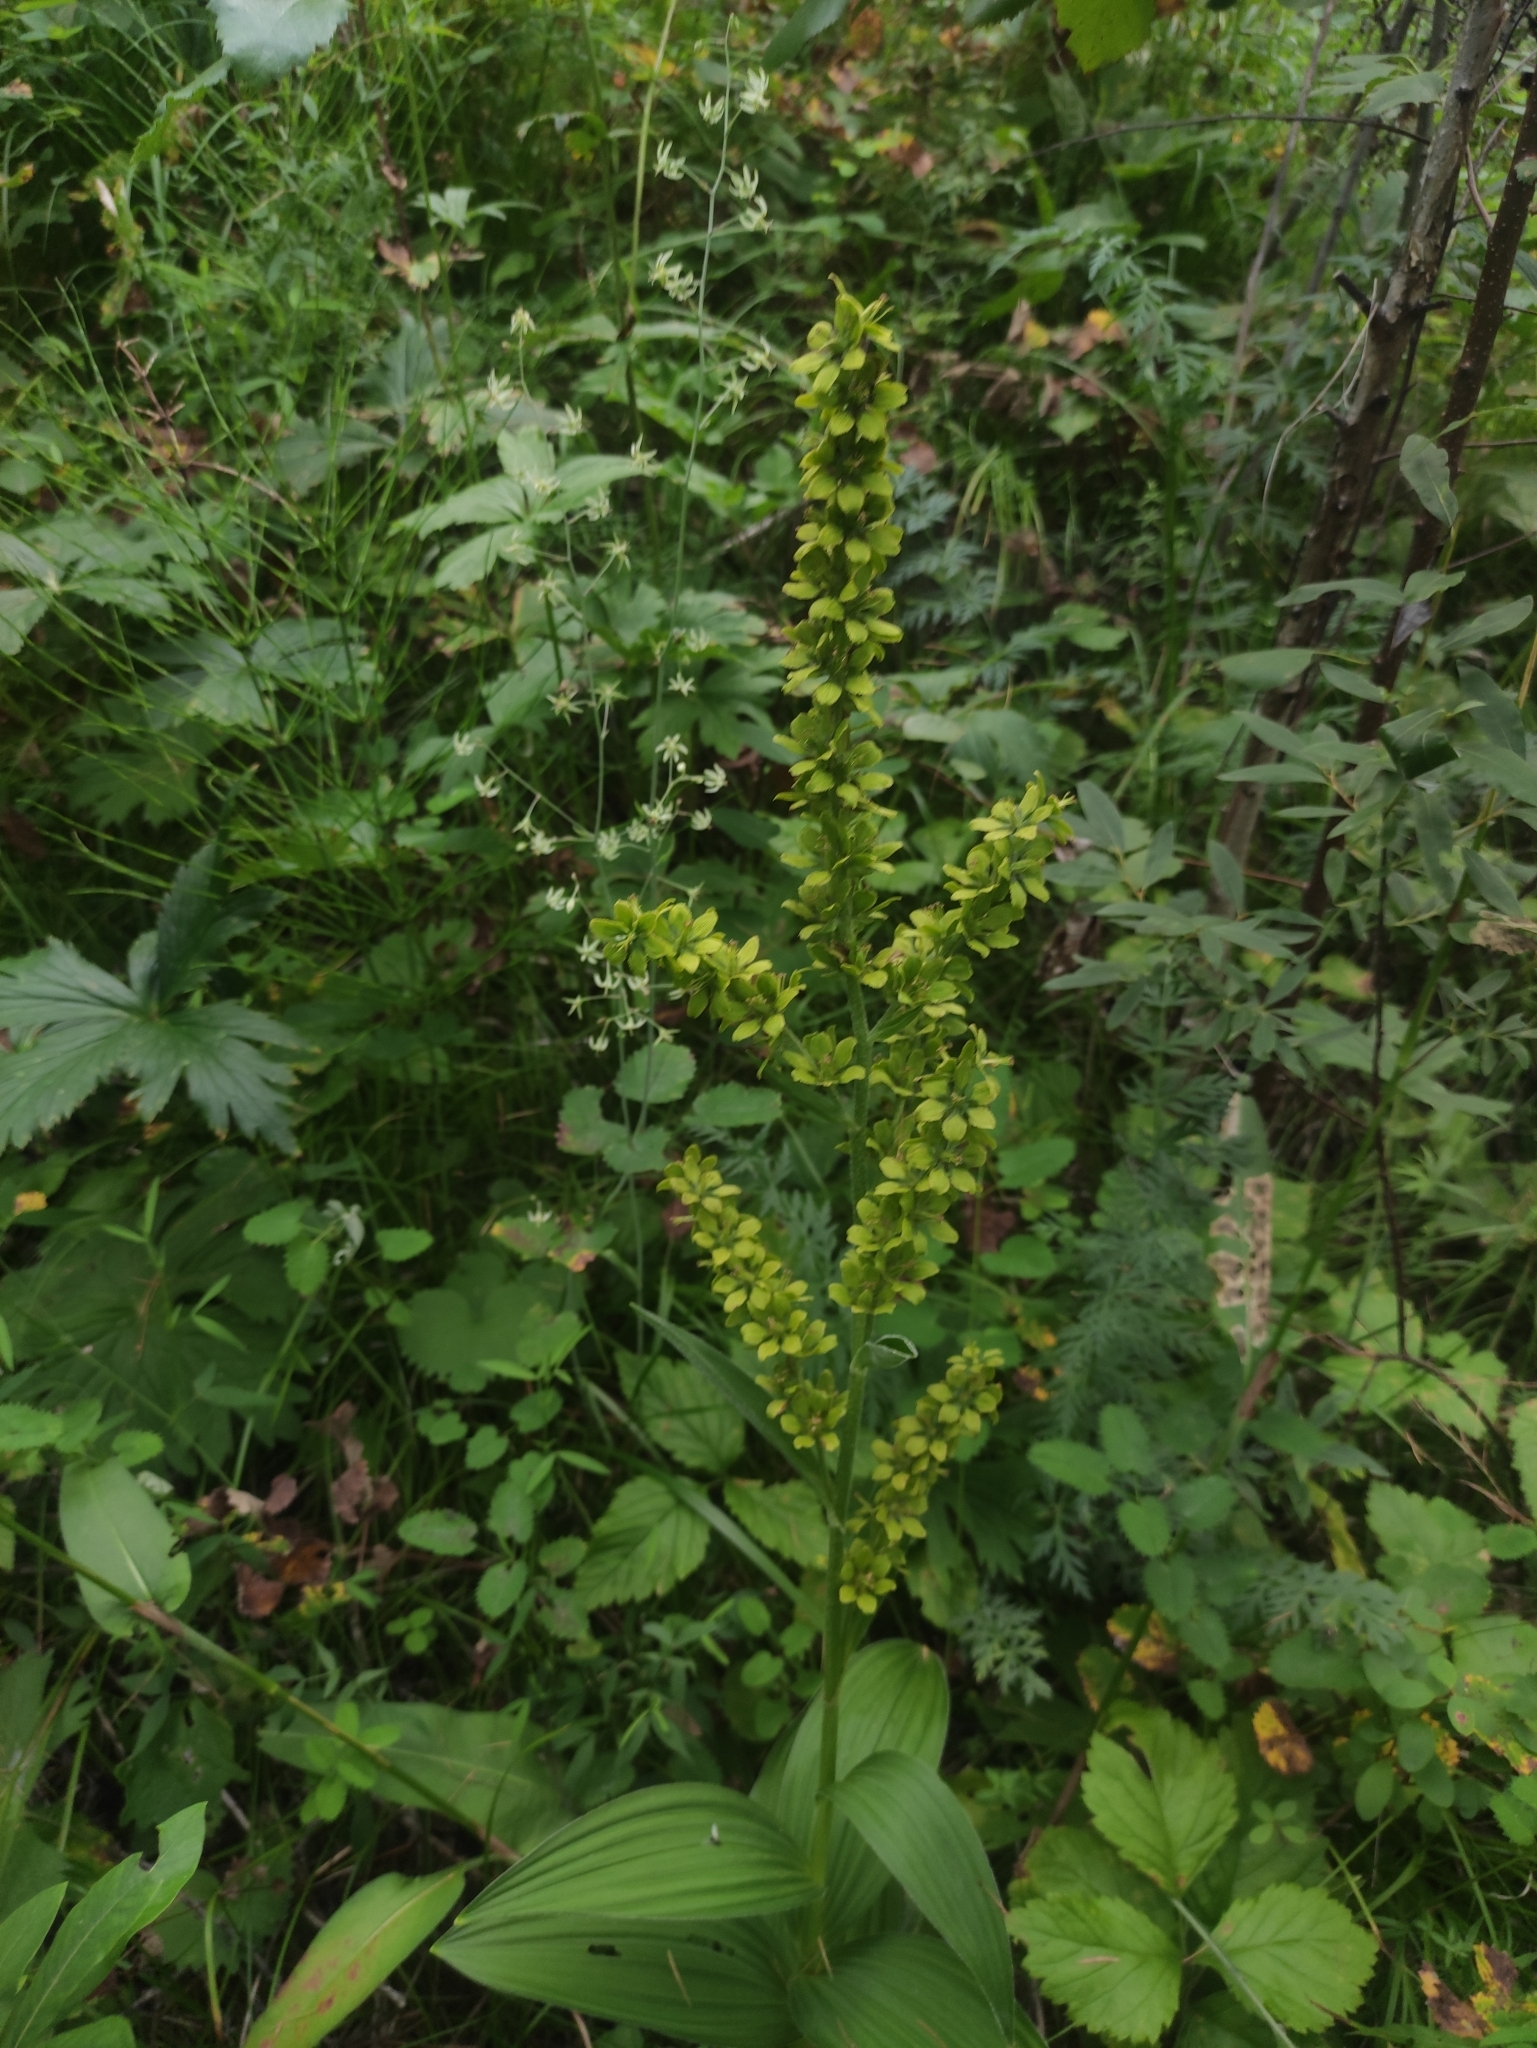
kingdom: Plantae
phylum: Tracheophyta
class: Liliopsida
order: Liliales
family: Melanthiaceae
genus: Veratrum
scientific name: Veratrum lobelianum
